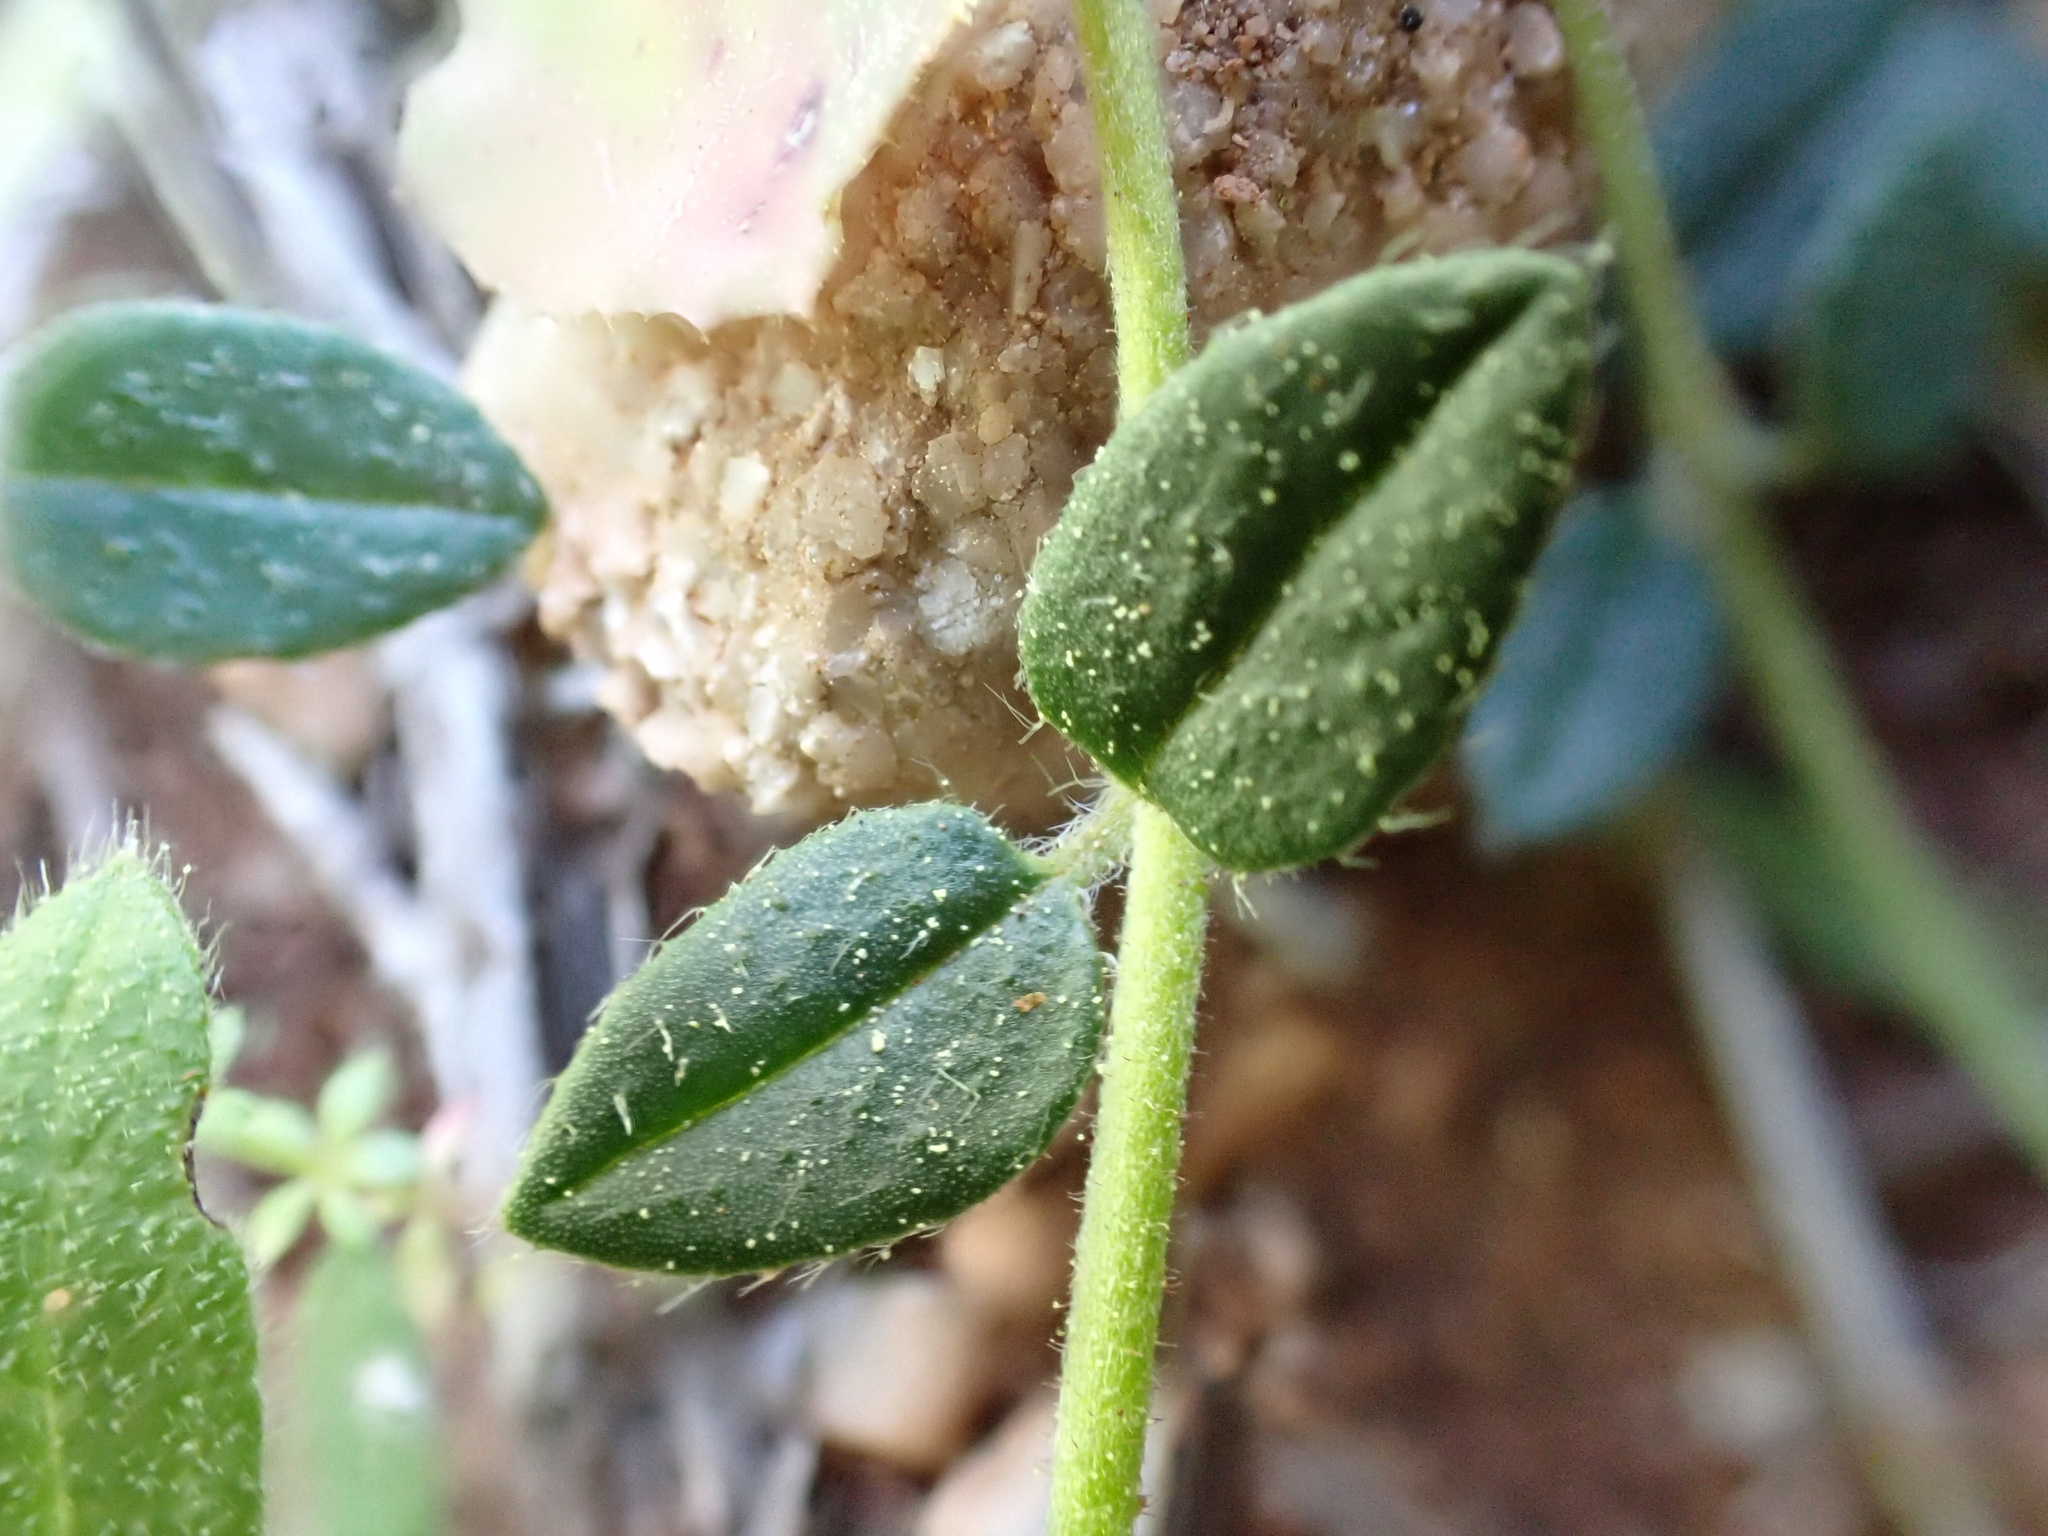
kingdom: Plantae
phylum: Tracheophyta
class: Magnoliopsida
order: Malvales
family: Cistaceae
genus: Helianthemum
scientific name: Helianthemum marifolium
